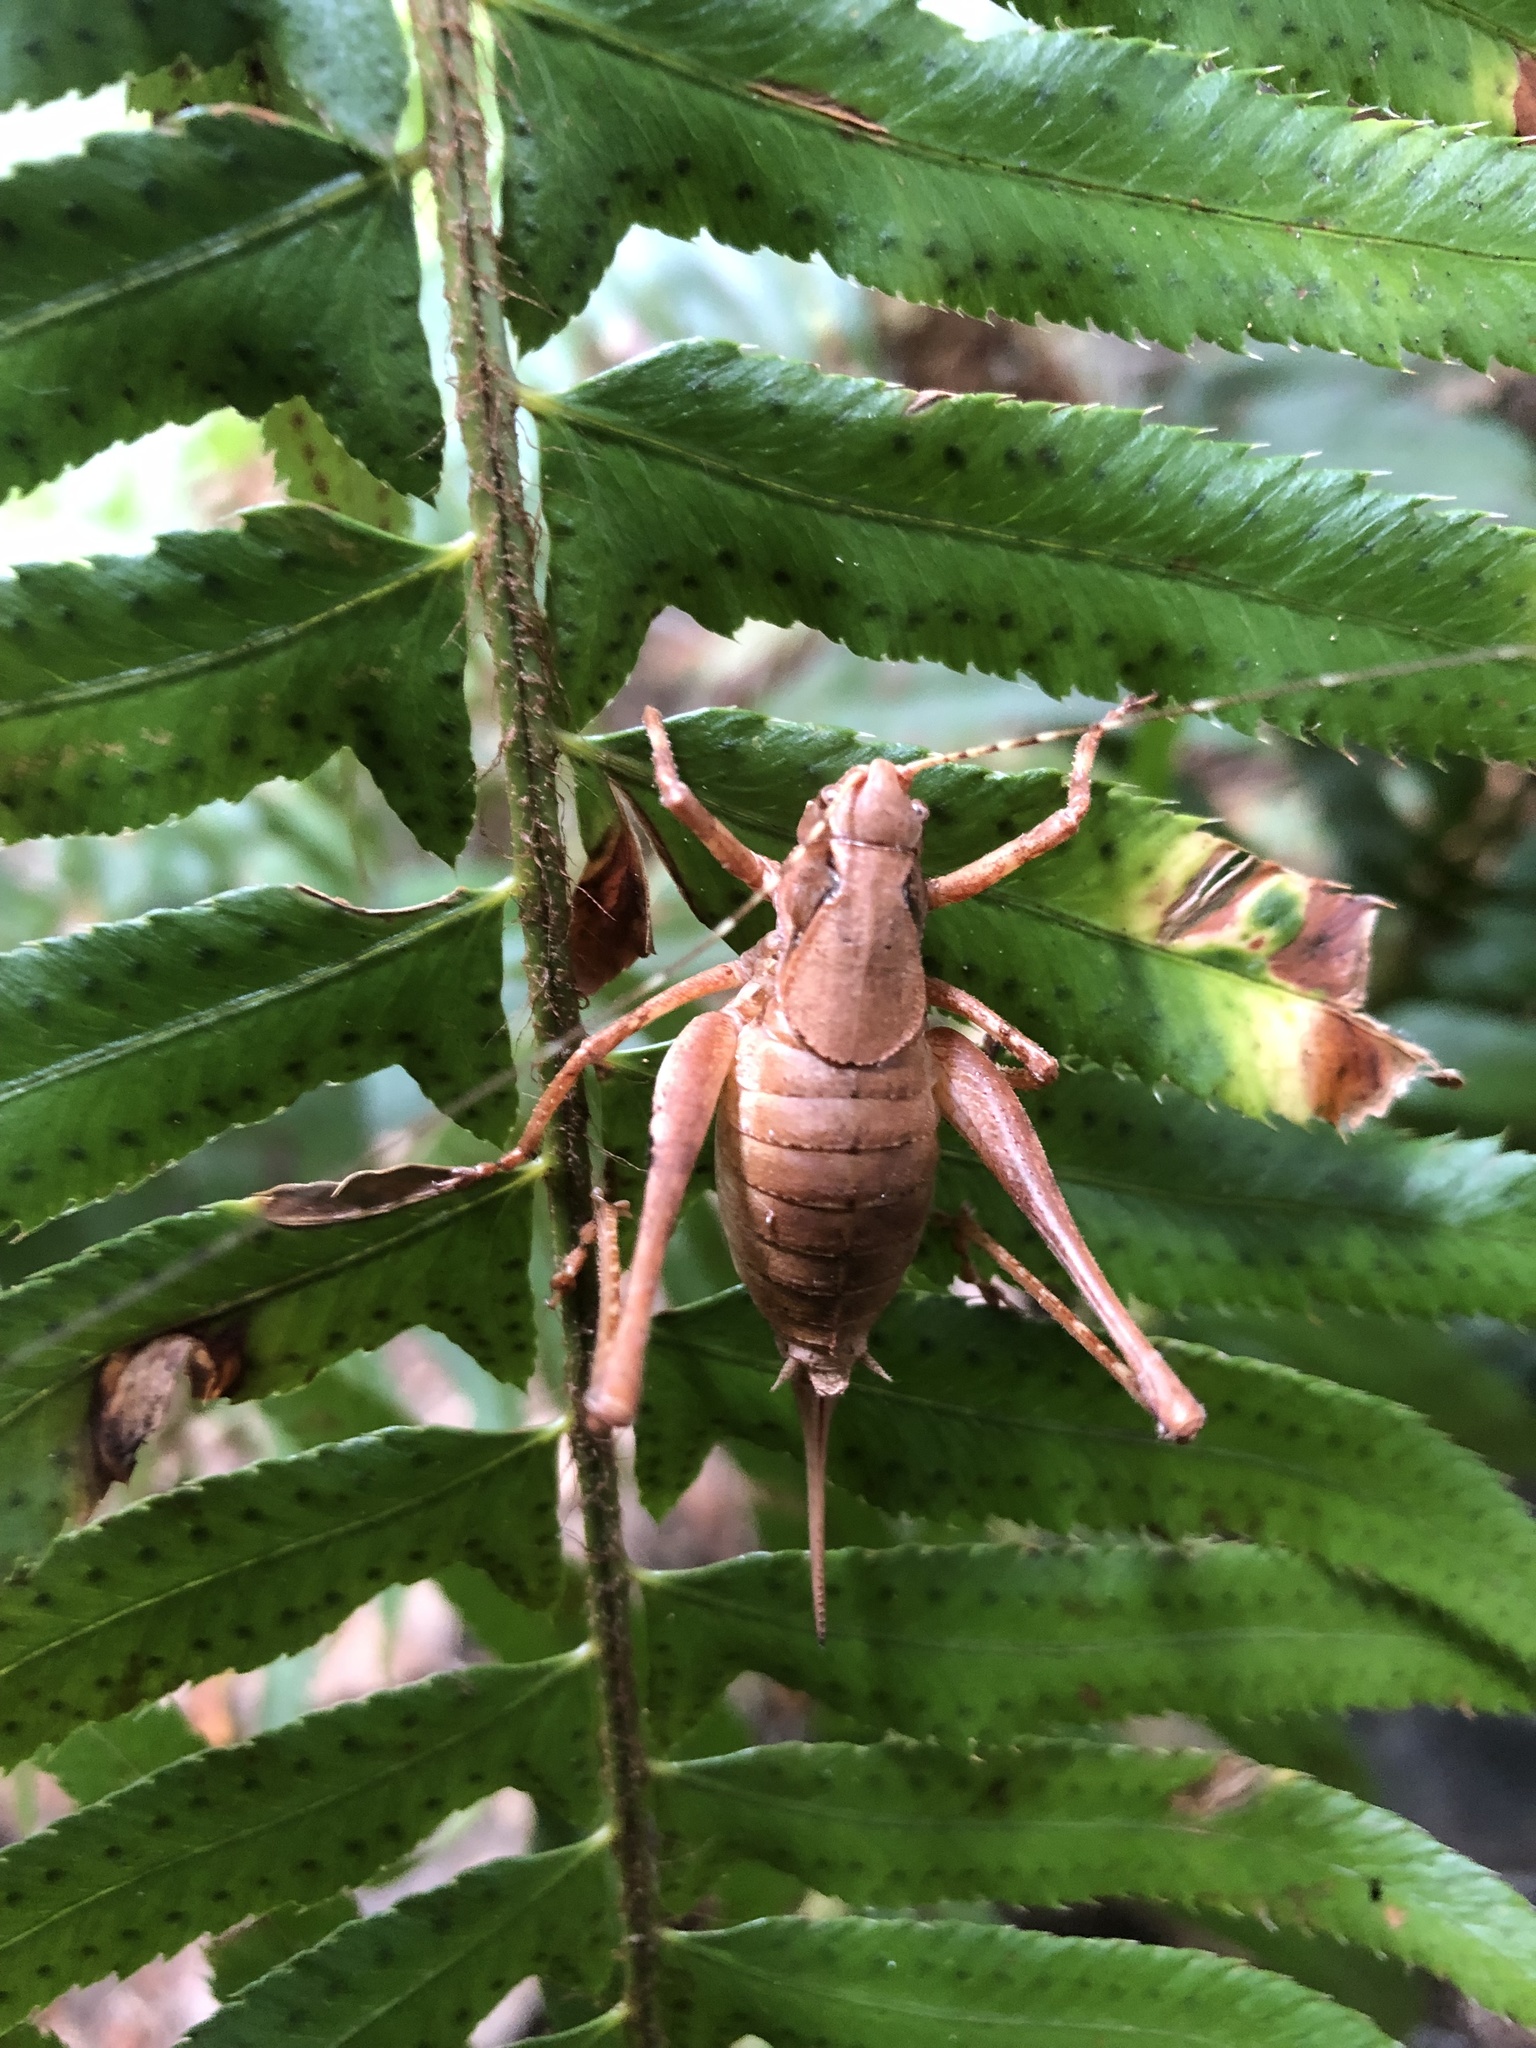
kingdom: Animalia
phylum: Arthropoda
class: Insecta
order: Orthoptera
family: Tettigoniidae
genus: Neduba
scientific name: Neduba steindachneri
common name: Steindachner's shieldback
